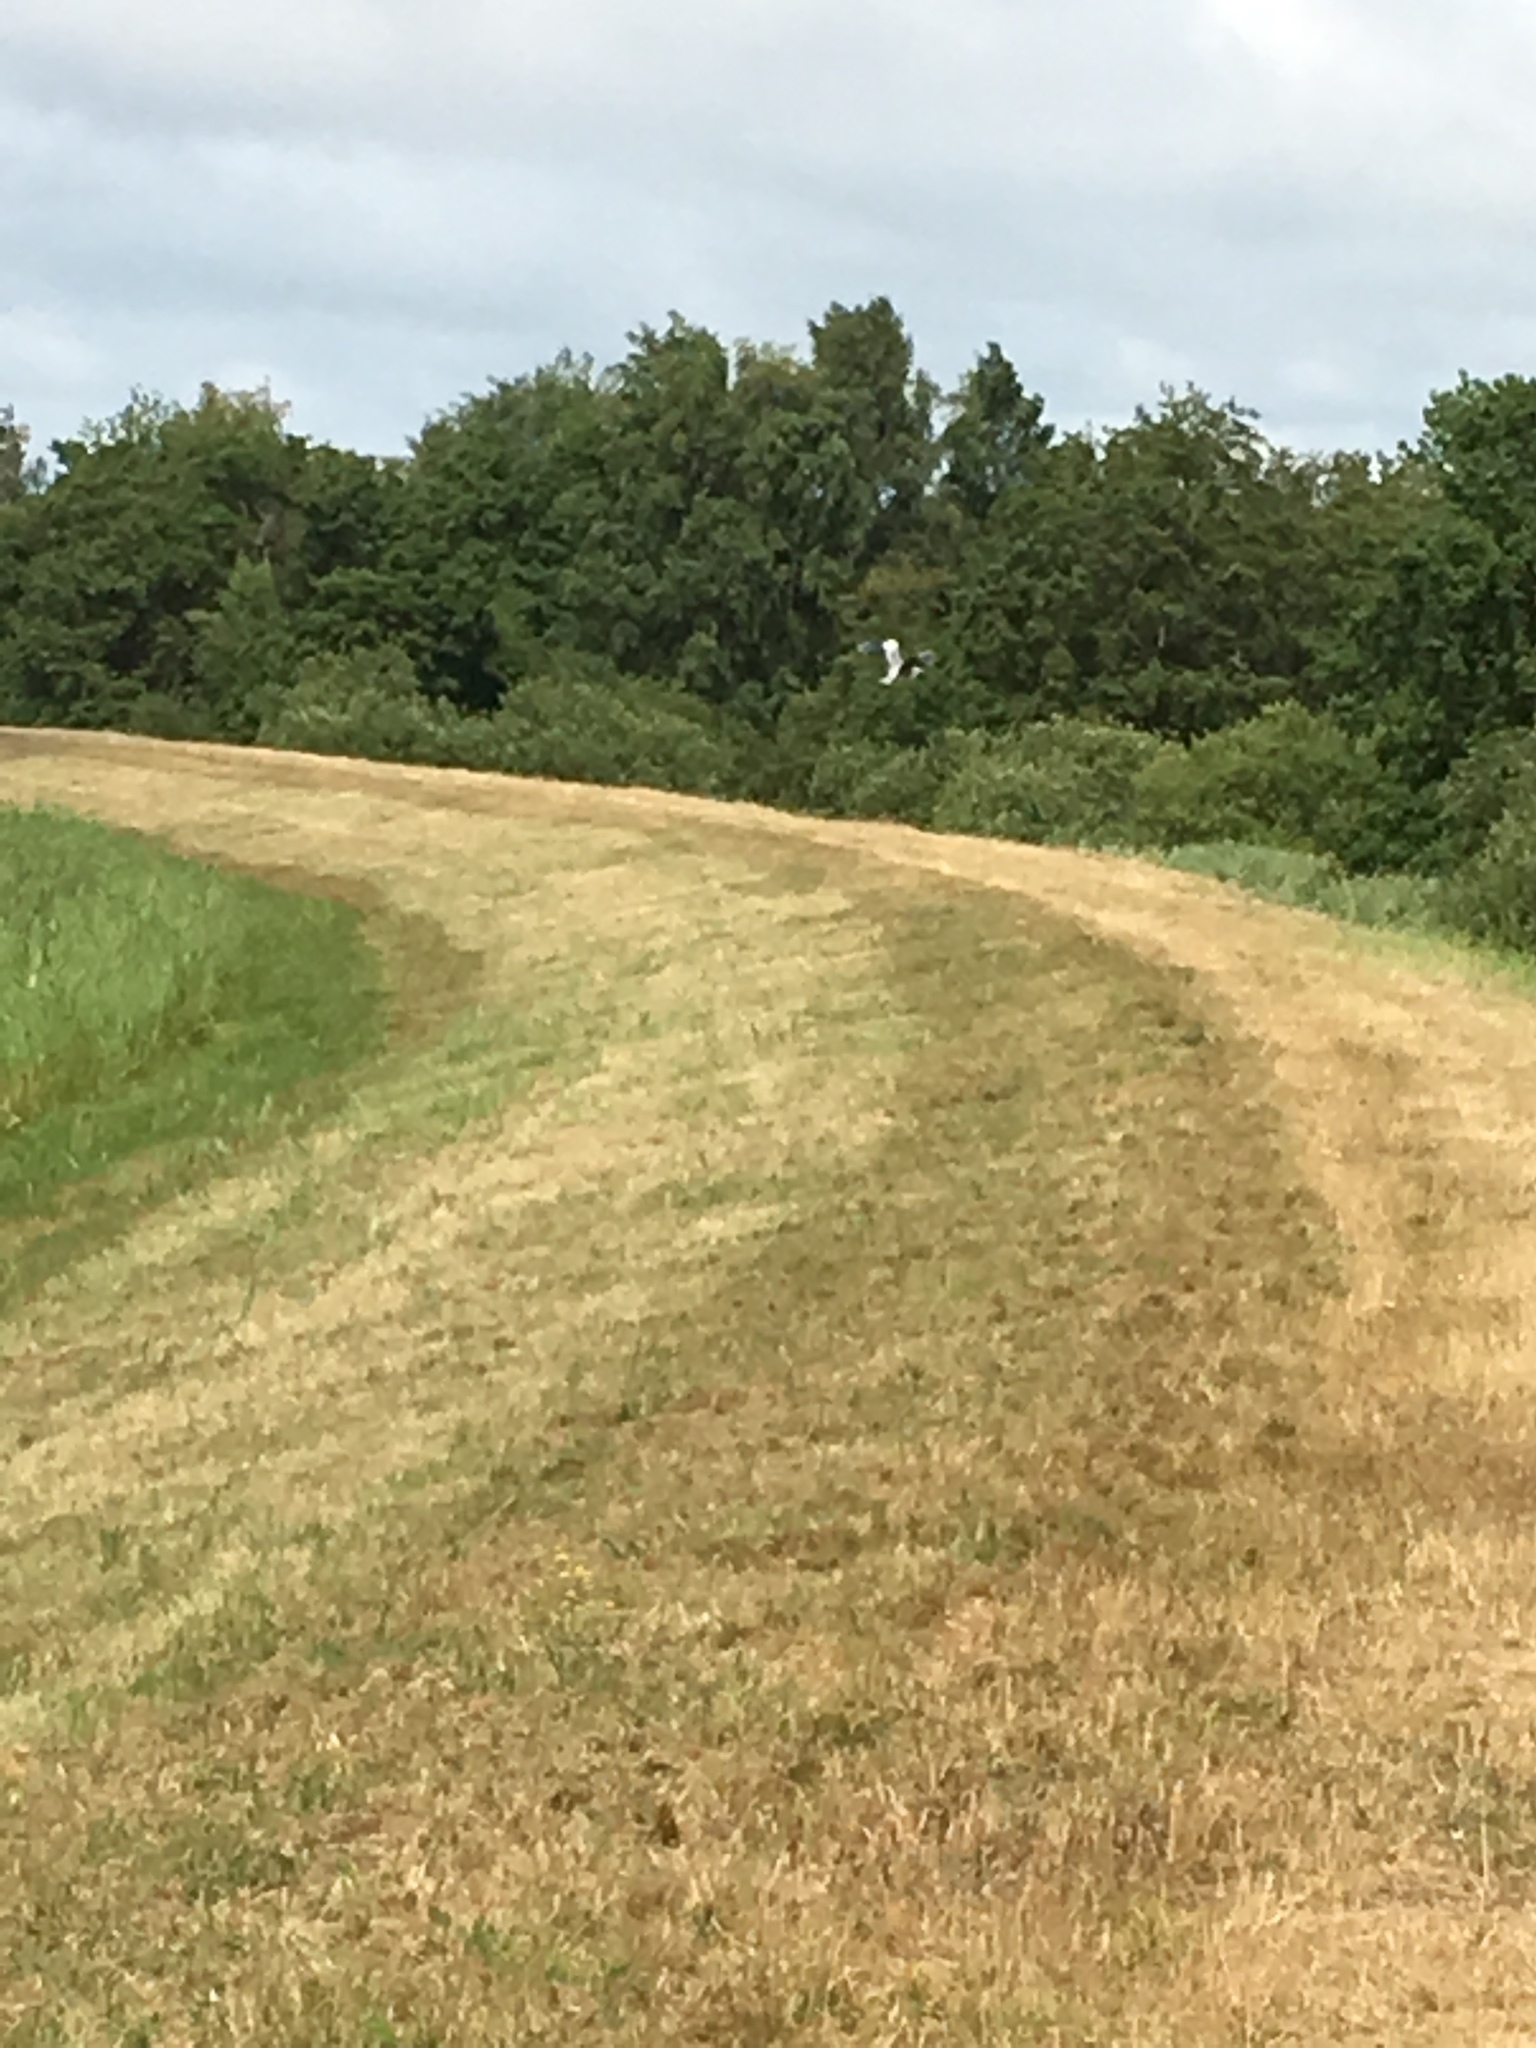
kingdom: Animalia
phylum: Chordata
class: Aves
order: Pelecaniformes
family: Ardeidae
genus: Ardea
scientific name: Ardea cinerea
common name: Grey heron
